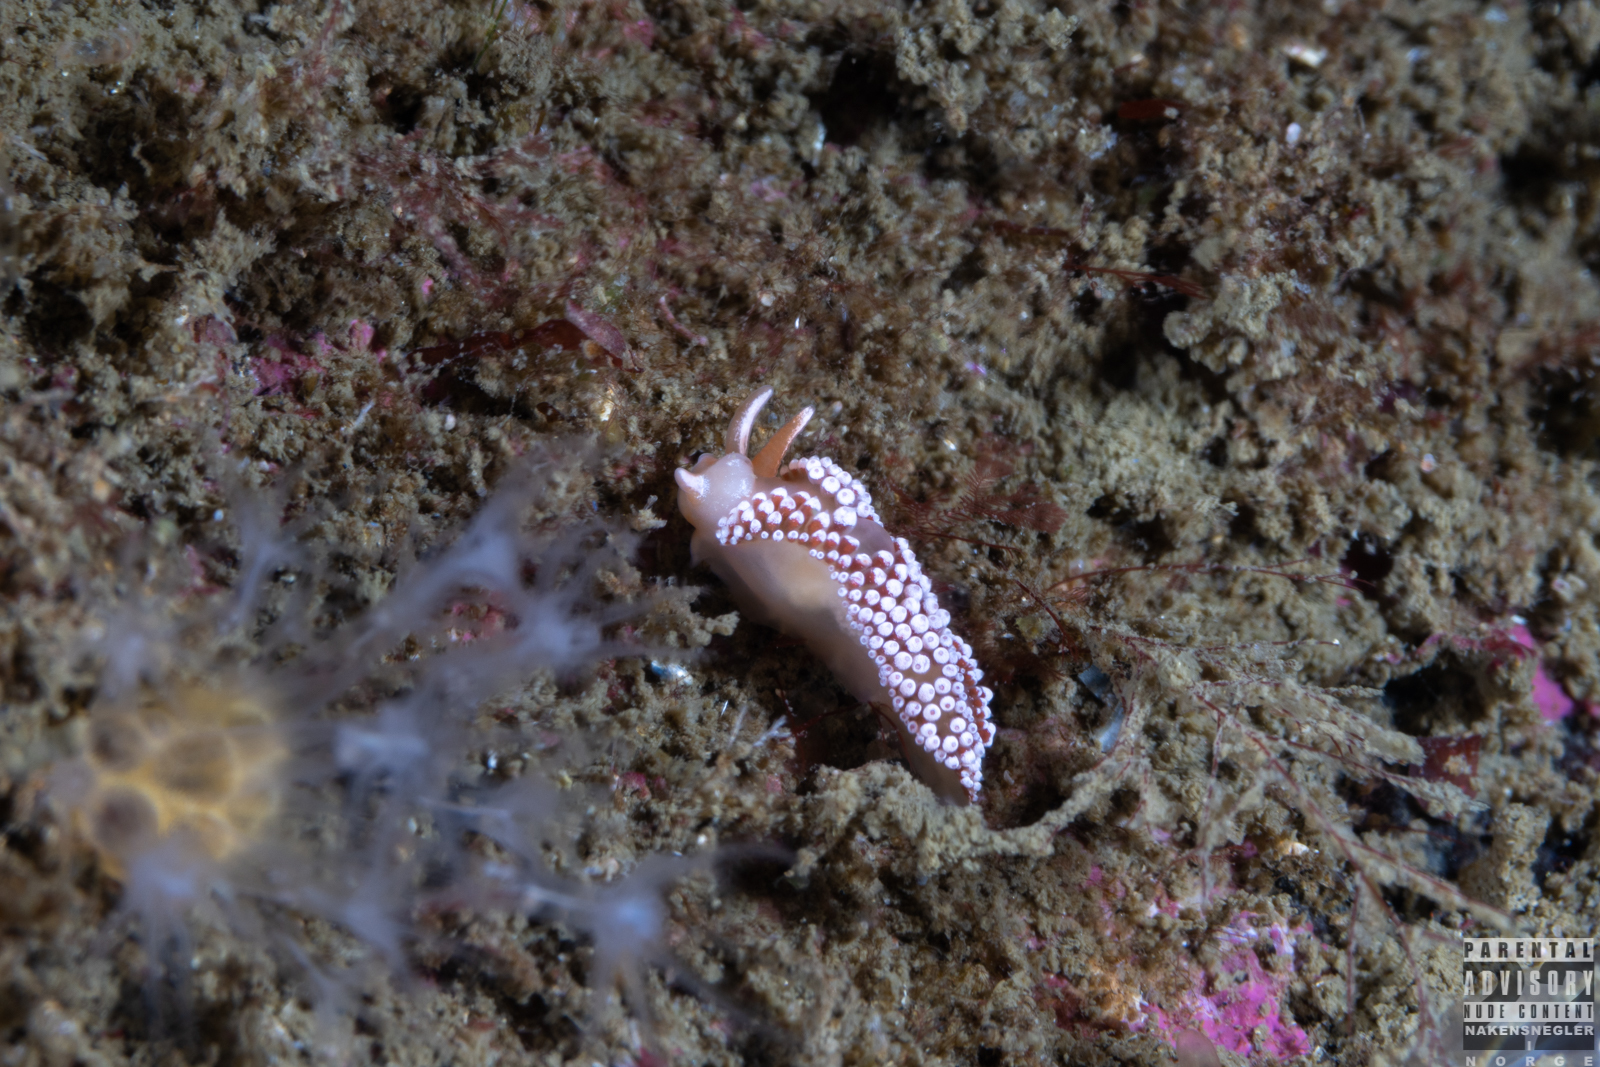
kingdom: Animalia
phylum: Mollusca
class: Gastropoda
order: Nudibranchia
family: Coryphellidae
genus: Coryphella
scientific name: Coryphella verrucosa
